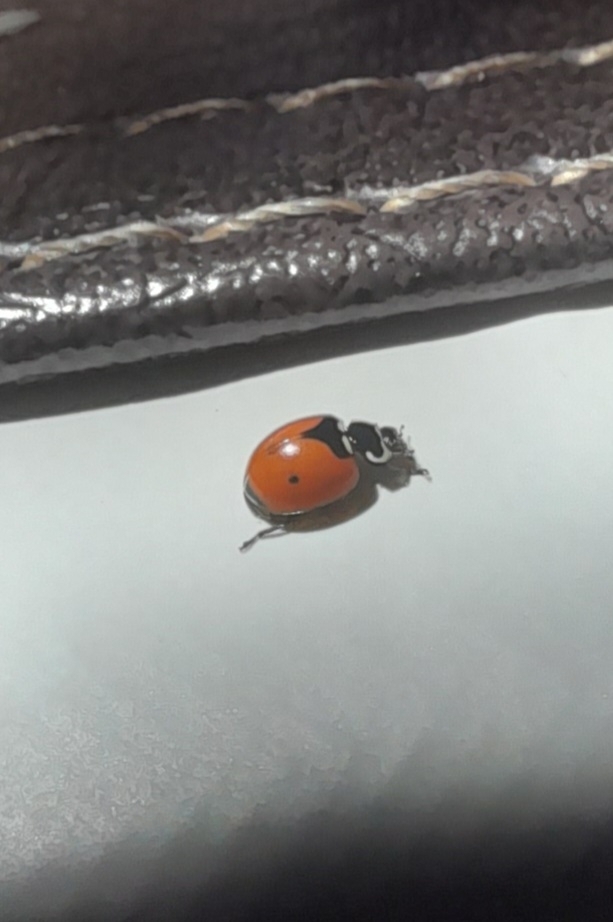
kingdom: Animalia
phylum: Arthropoda
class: Insecta
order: Coleoptera
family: Coccinellidae
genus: Adalia
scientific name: Adalia deficiens
